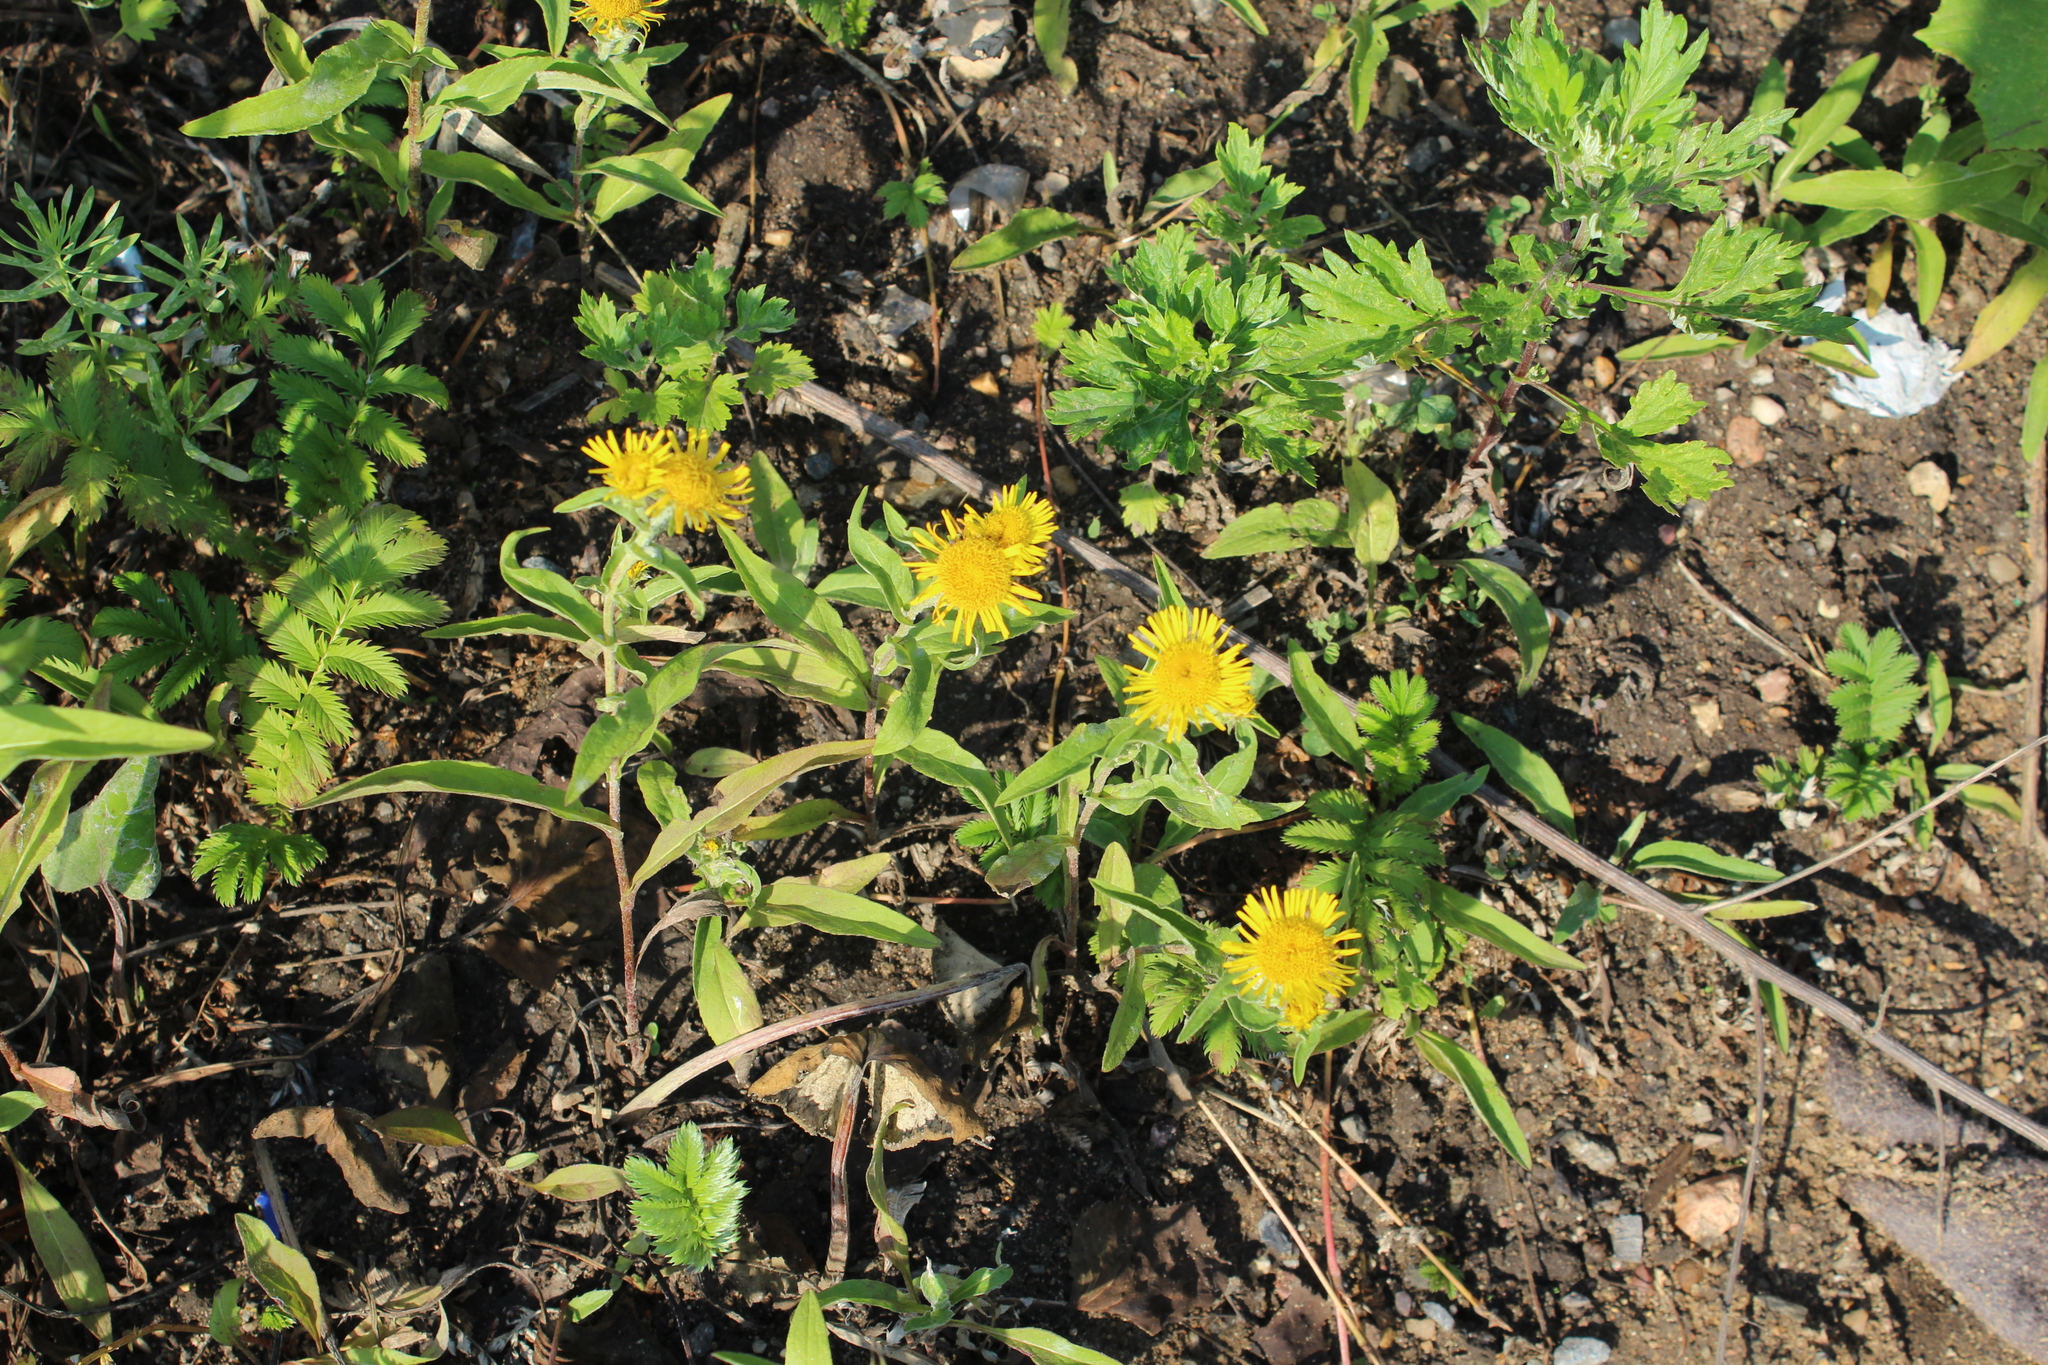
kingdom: Plantae
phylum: Tracheophyta
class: Magnoliopsida
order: Asterales
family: Asteraceae
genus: Pentanema
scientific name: Pentanema britannicum
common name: British elecampane
